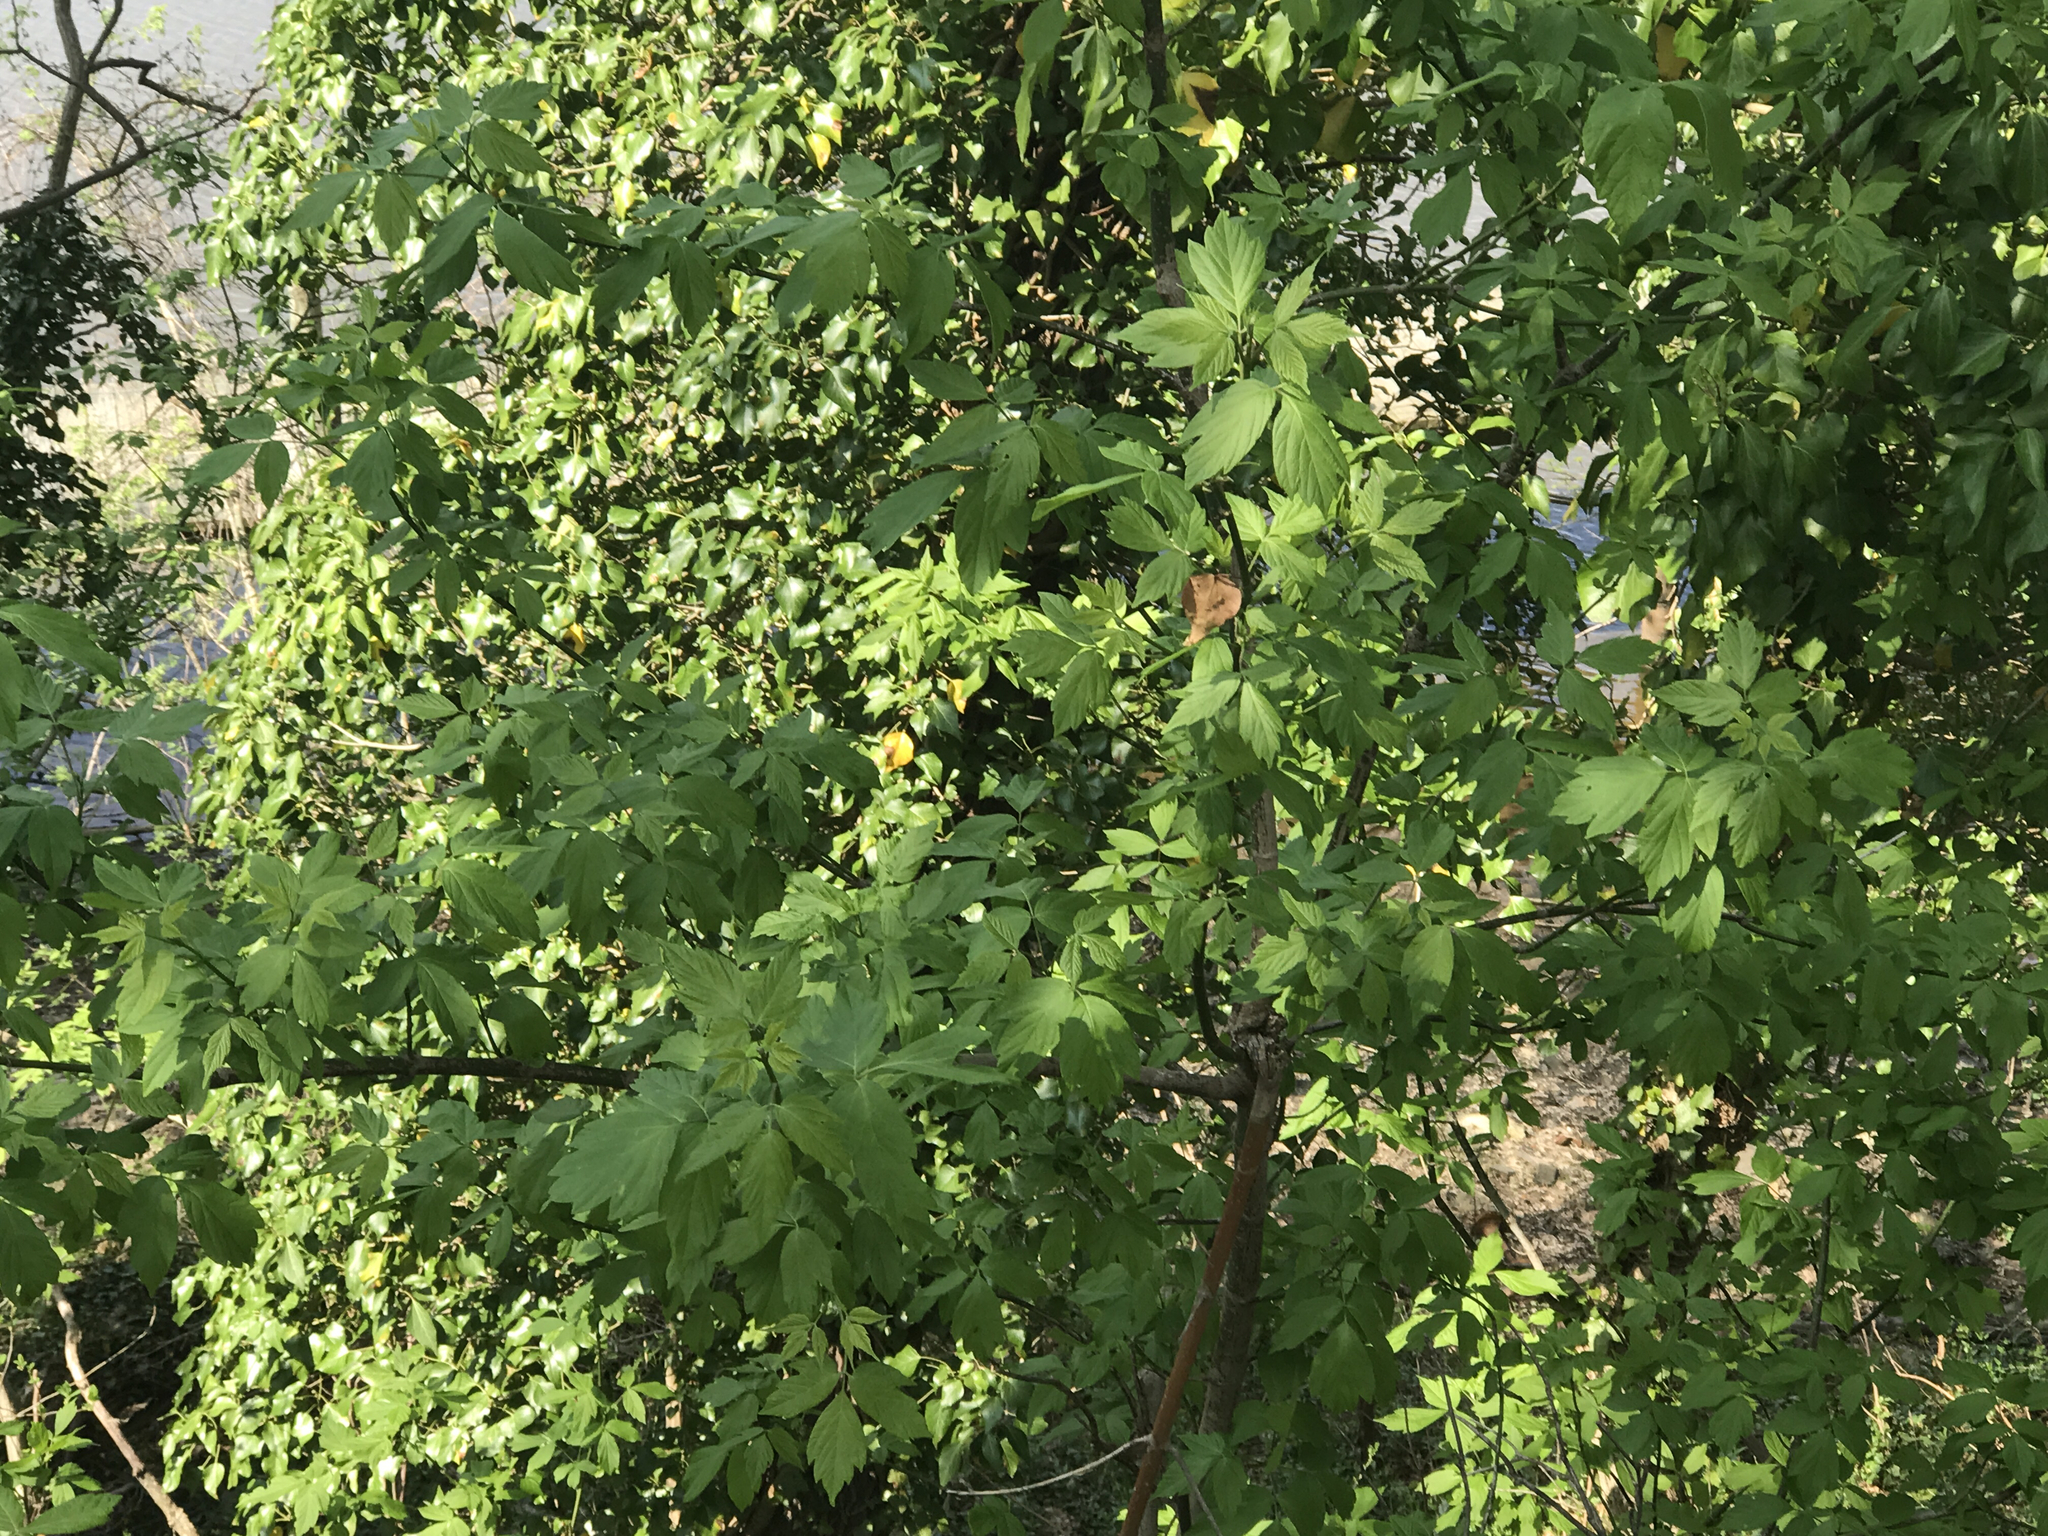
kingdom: Plantae
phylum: Tracheophyta
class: Magnoliopsida
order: Sapindales
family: Sapindaceae
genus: Acer
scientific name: Acer negundo
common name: Ashleaf maple
